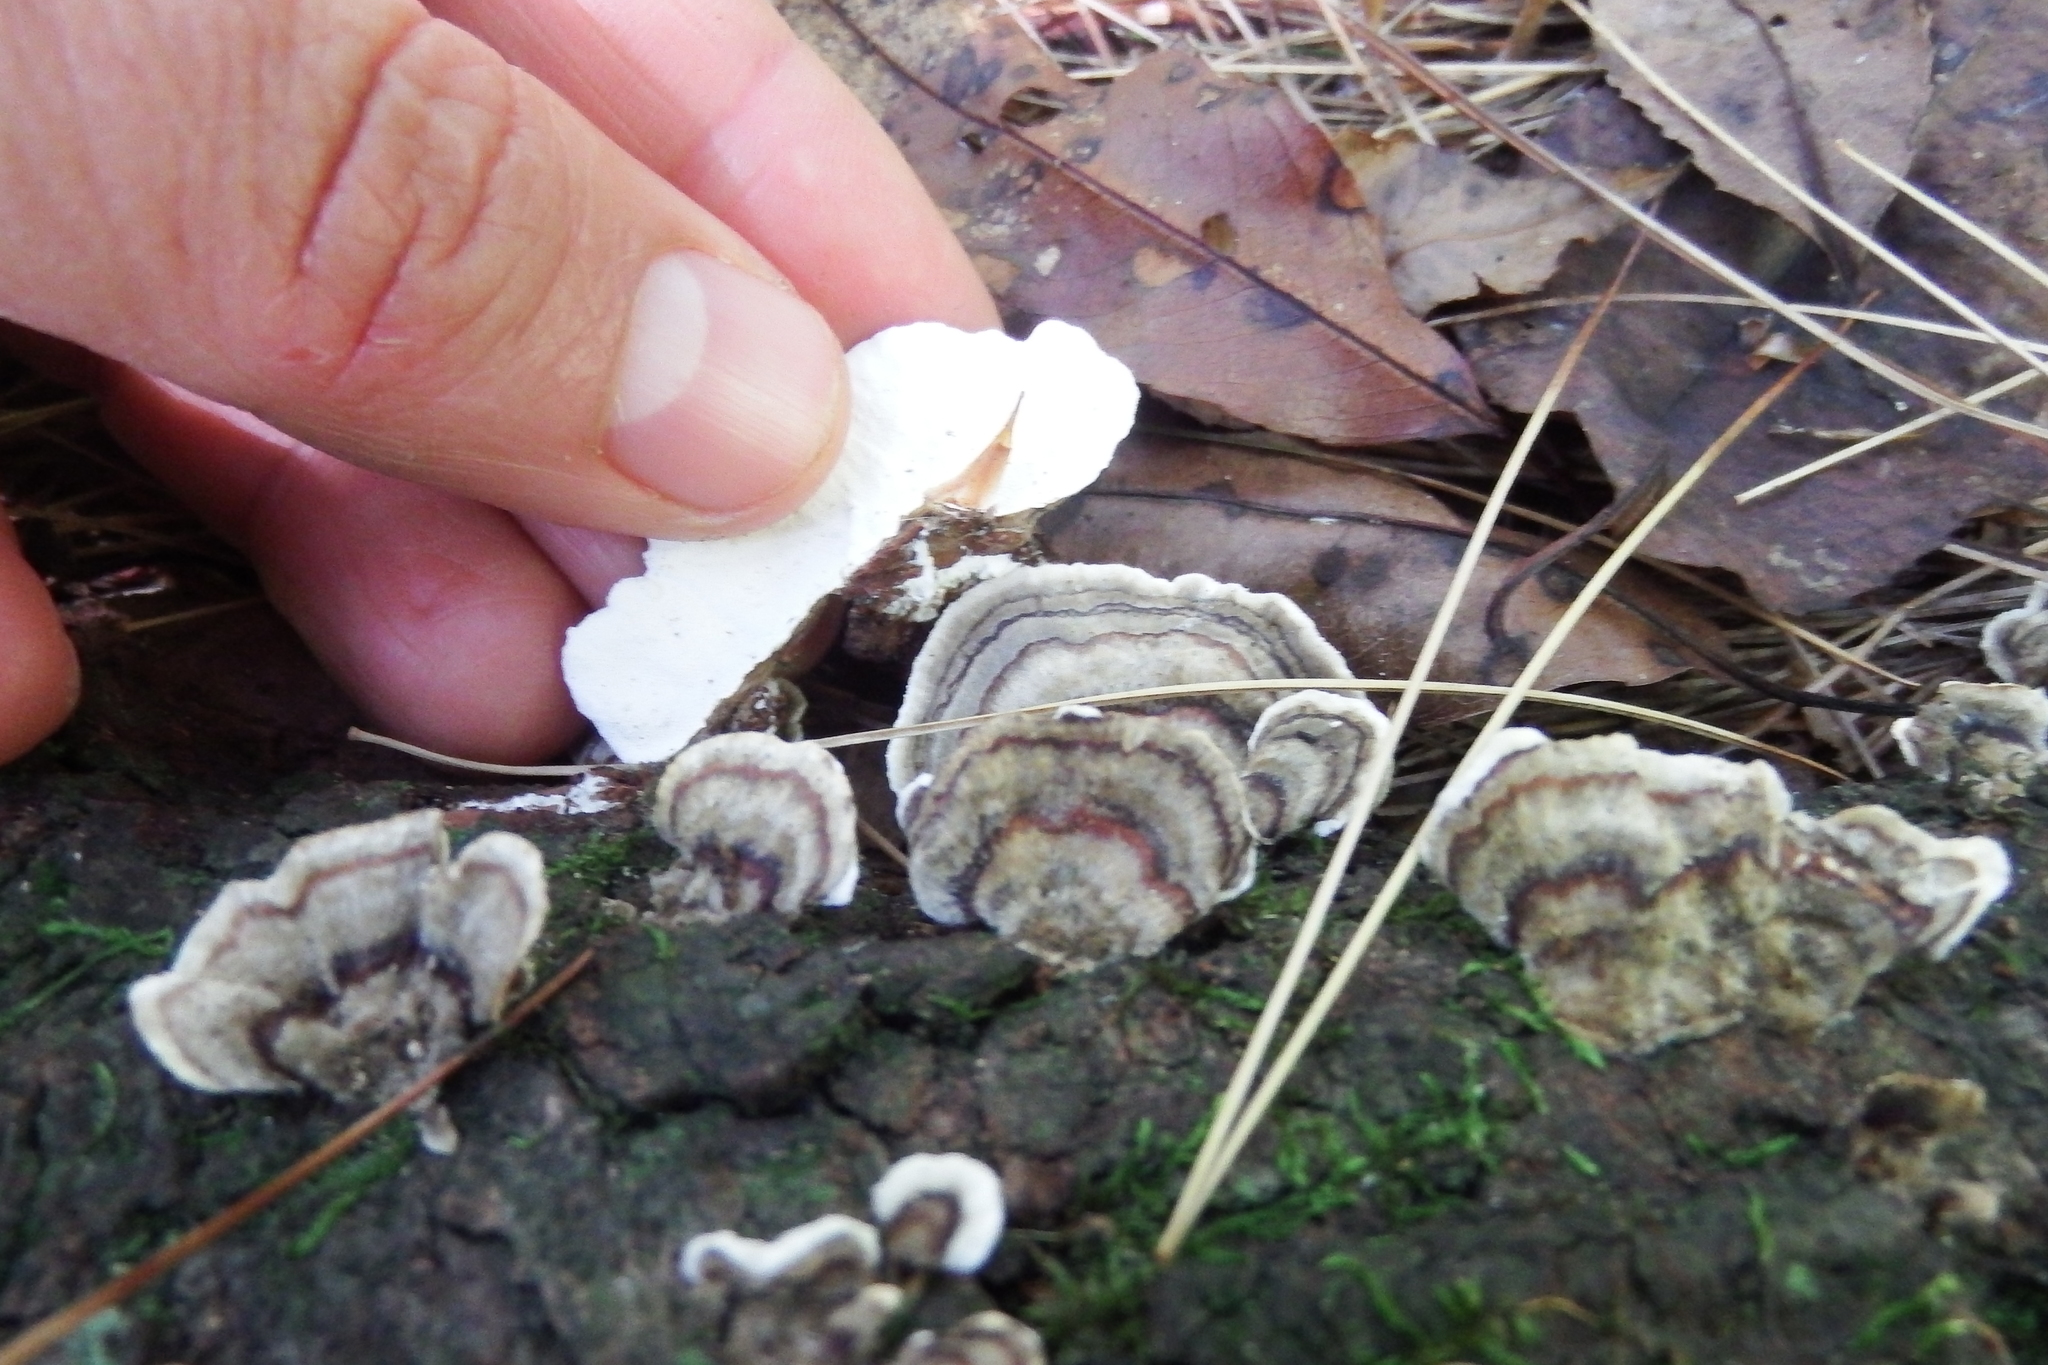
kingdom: Fungi
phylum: Basidiomycota
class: Agaricomycetes
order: Polyporales
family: Polyporaceae
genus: Trametes
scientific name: Trametes versicolor
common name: Turkeytail
